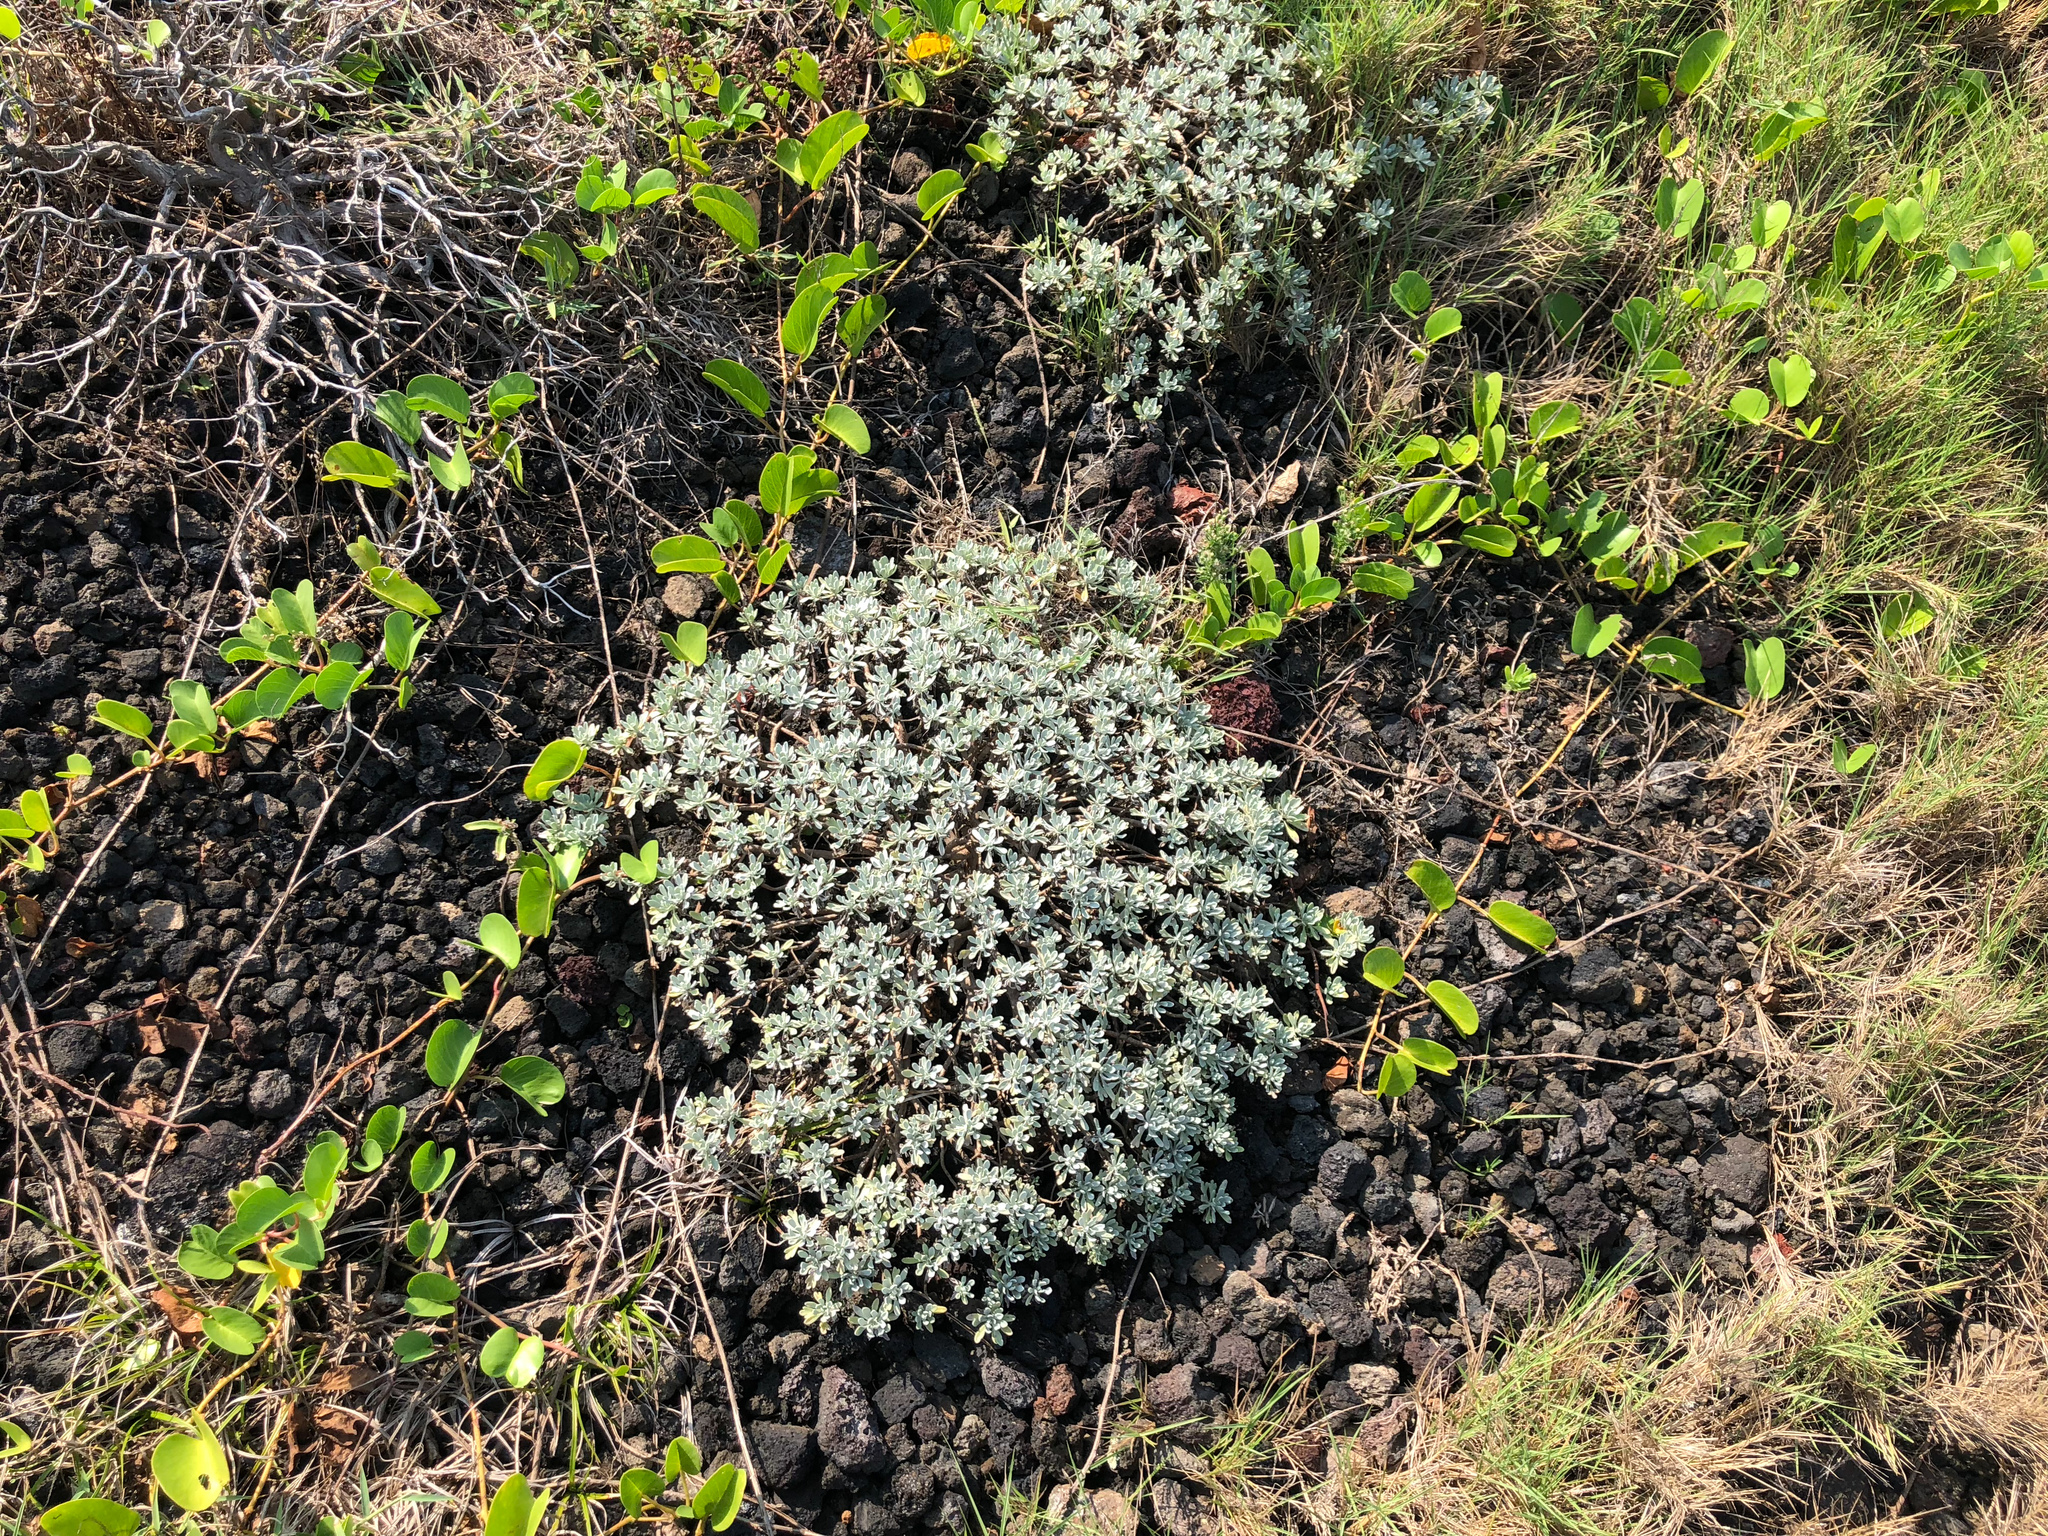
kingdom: Plantae
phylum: Tracheophyta
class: Magnoliopsida
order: Asterales
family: Asteraceae
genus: Crossostephium
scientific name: Crossostephium chinense
